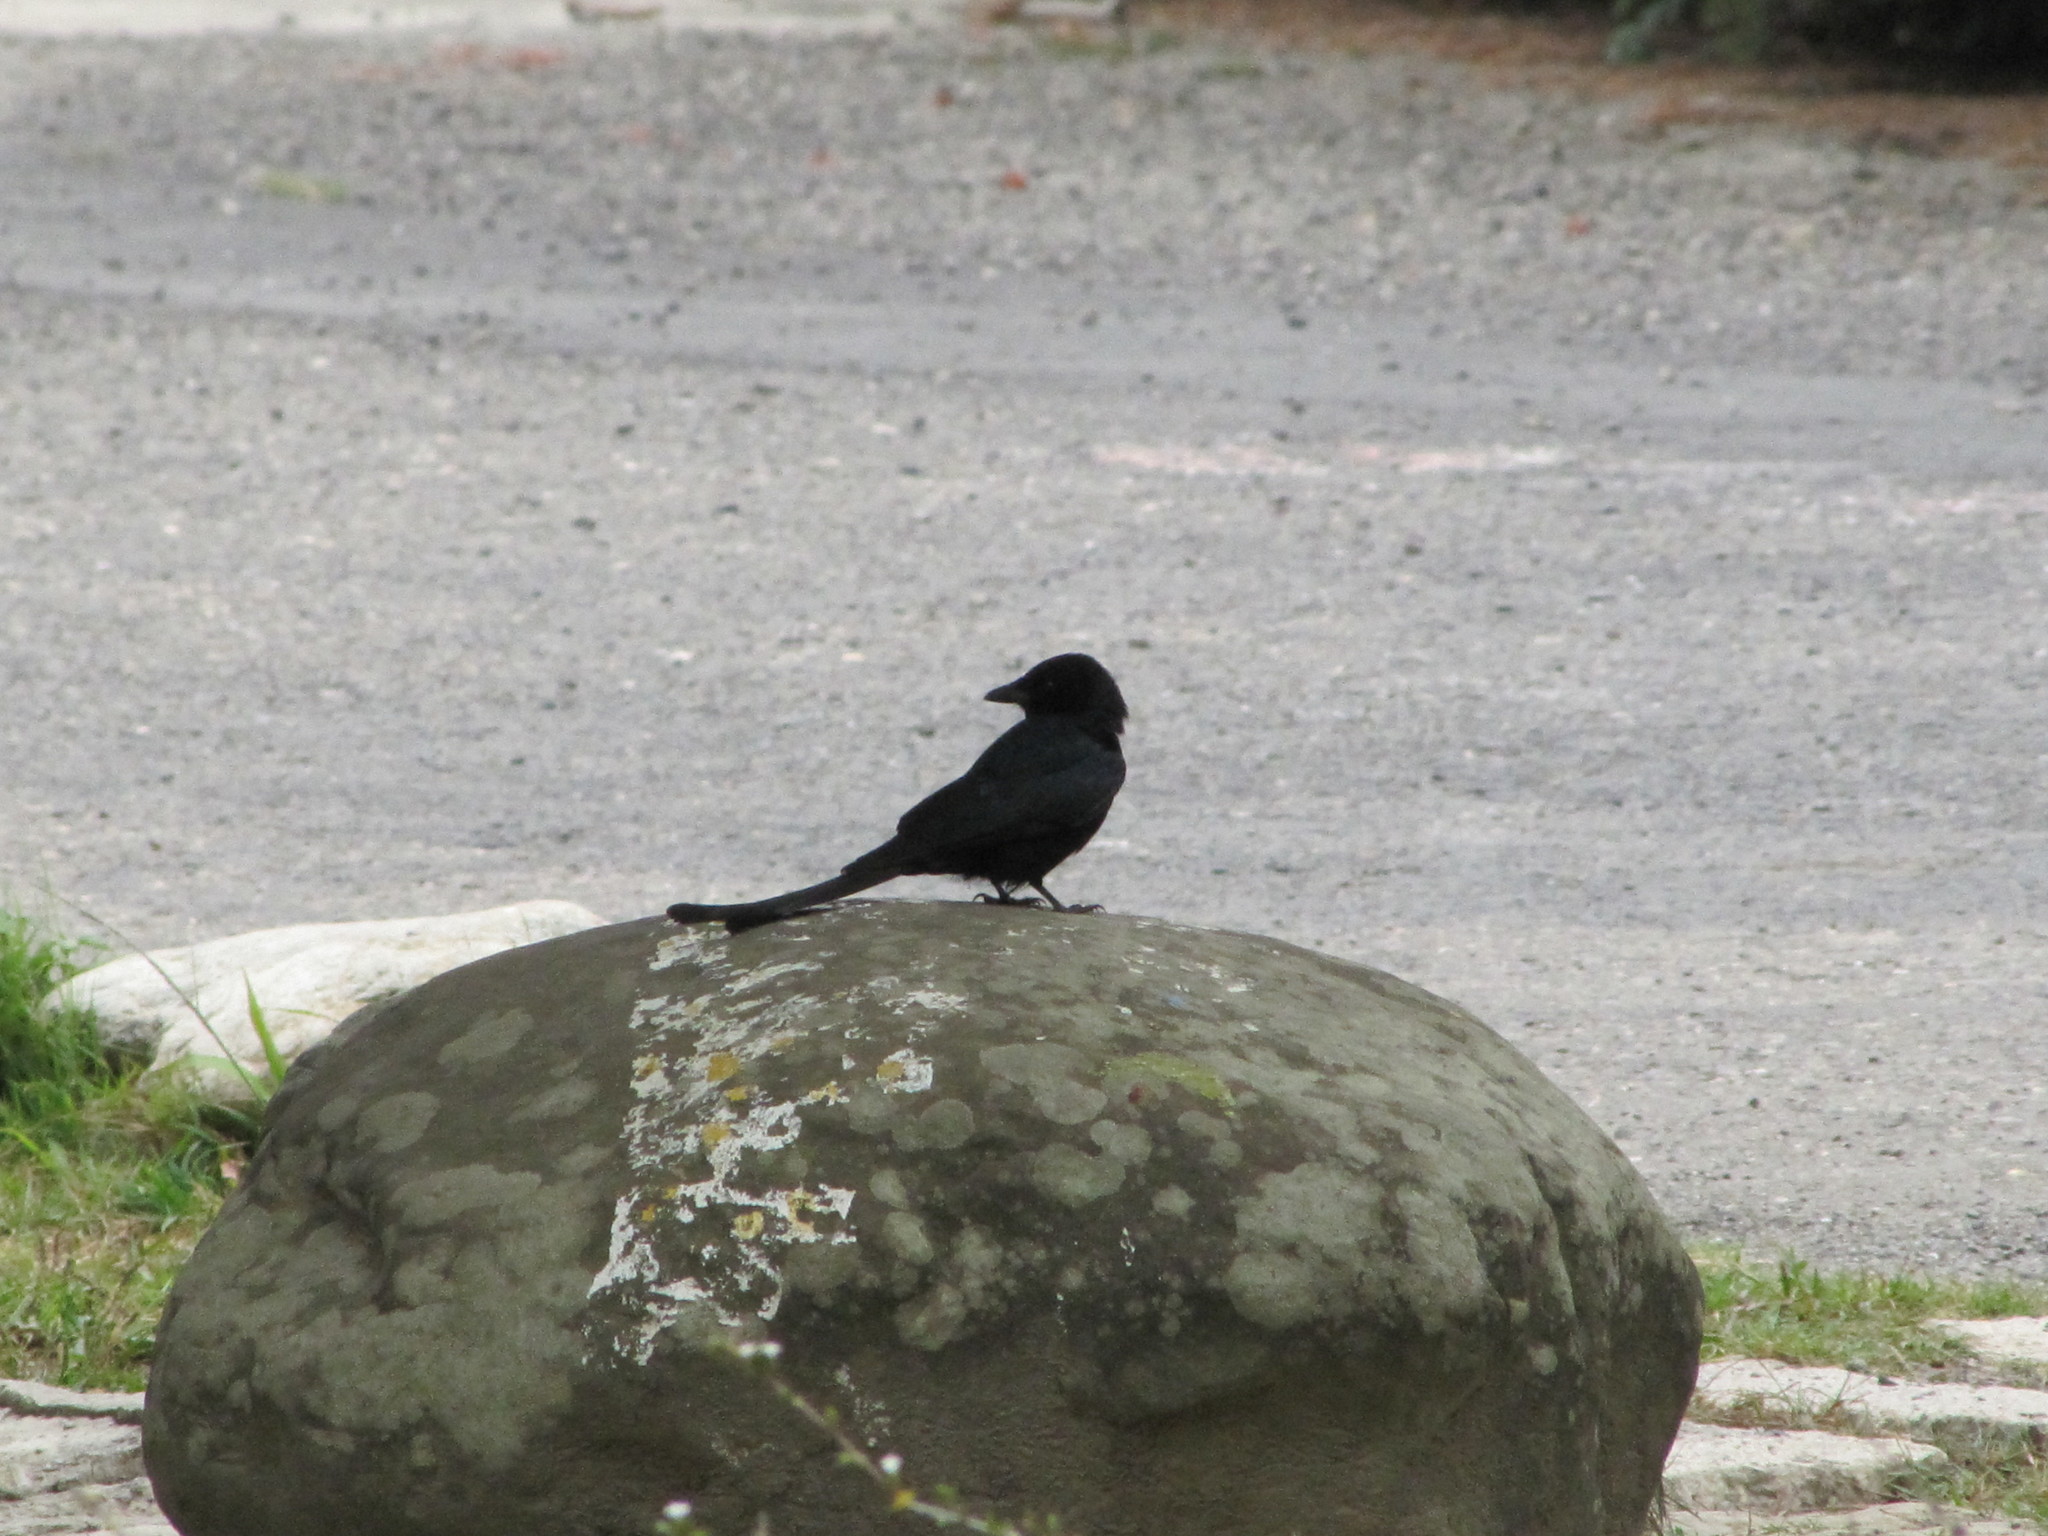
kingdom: Animalia
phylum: Chordata
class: Aves
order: Passeriformes
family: Dicruridae
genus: Dicrurus
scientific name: Dicrurus macrocercus
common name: Black drongo
